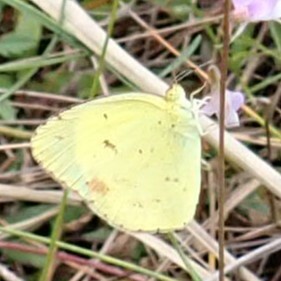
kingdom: Animalia
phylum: Arthropoda
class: Insecta
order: Lepidoptera
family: Pieridae
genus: Pyrisitia
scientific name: Pyrisitia lisa
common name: Little yellow
